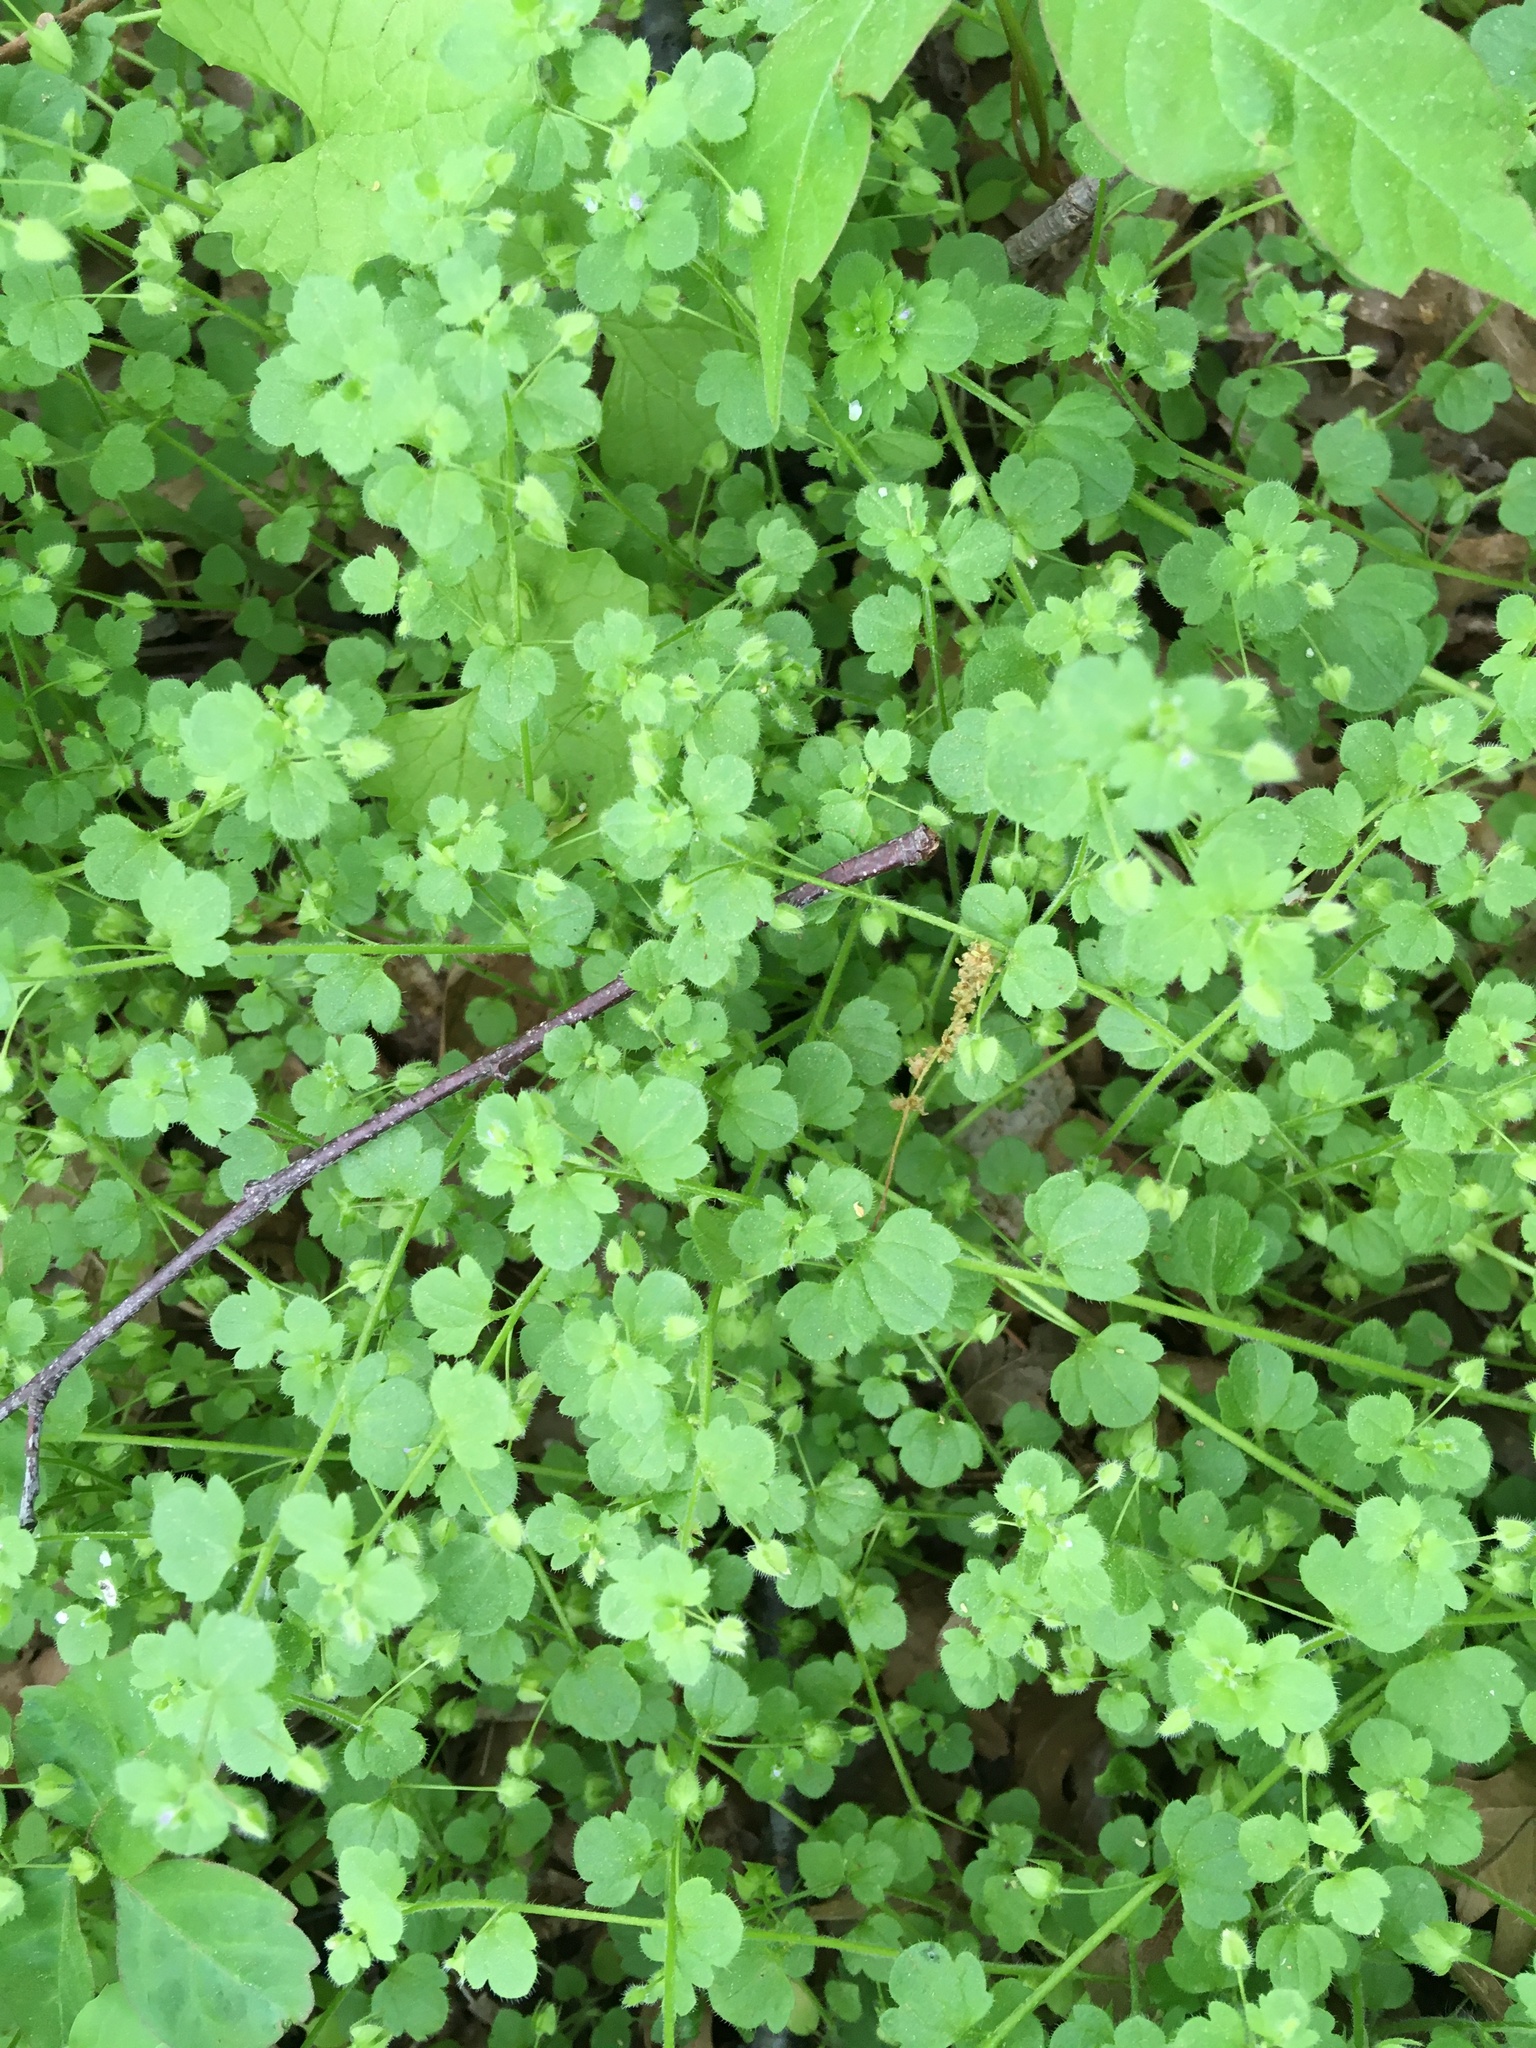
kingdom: Plantae
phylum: Tracheophyta
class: Magnoliopsida
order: Lamiales
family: Plantaginaceae
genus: Veronica
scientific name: Veronica hederifolia
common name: Ivy-leaved speedwell
